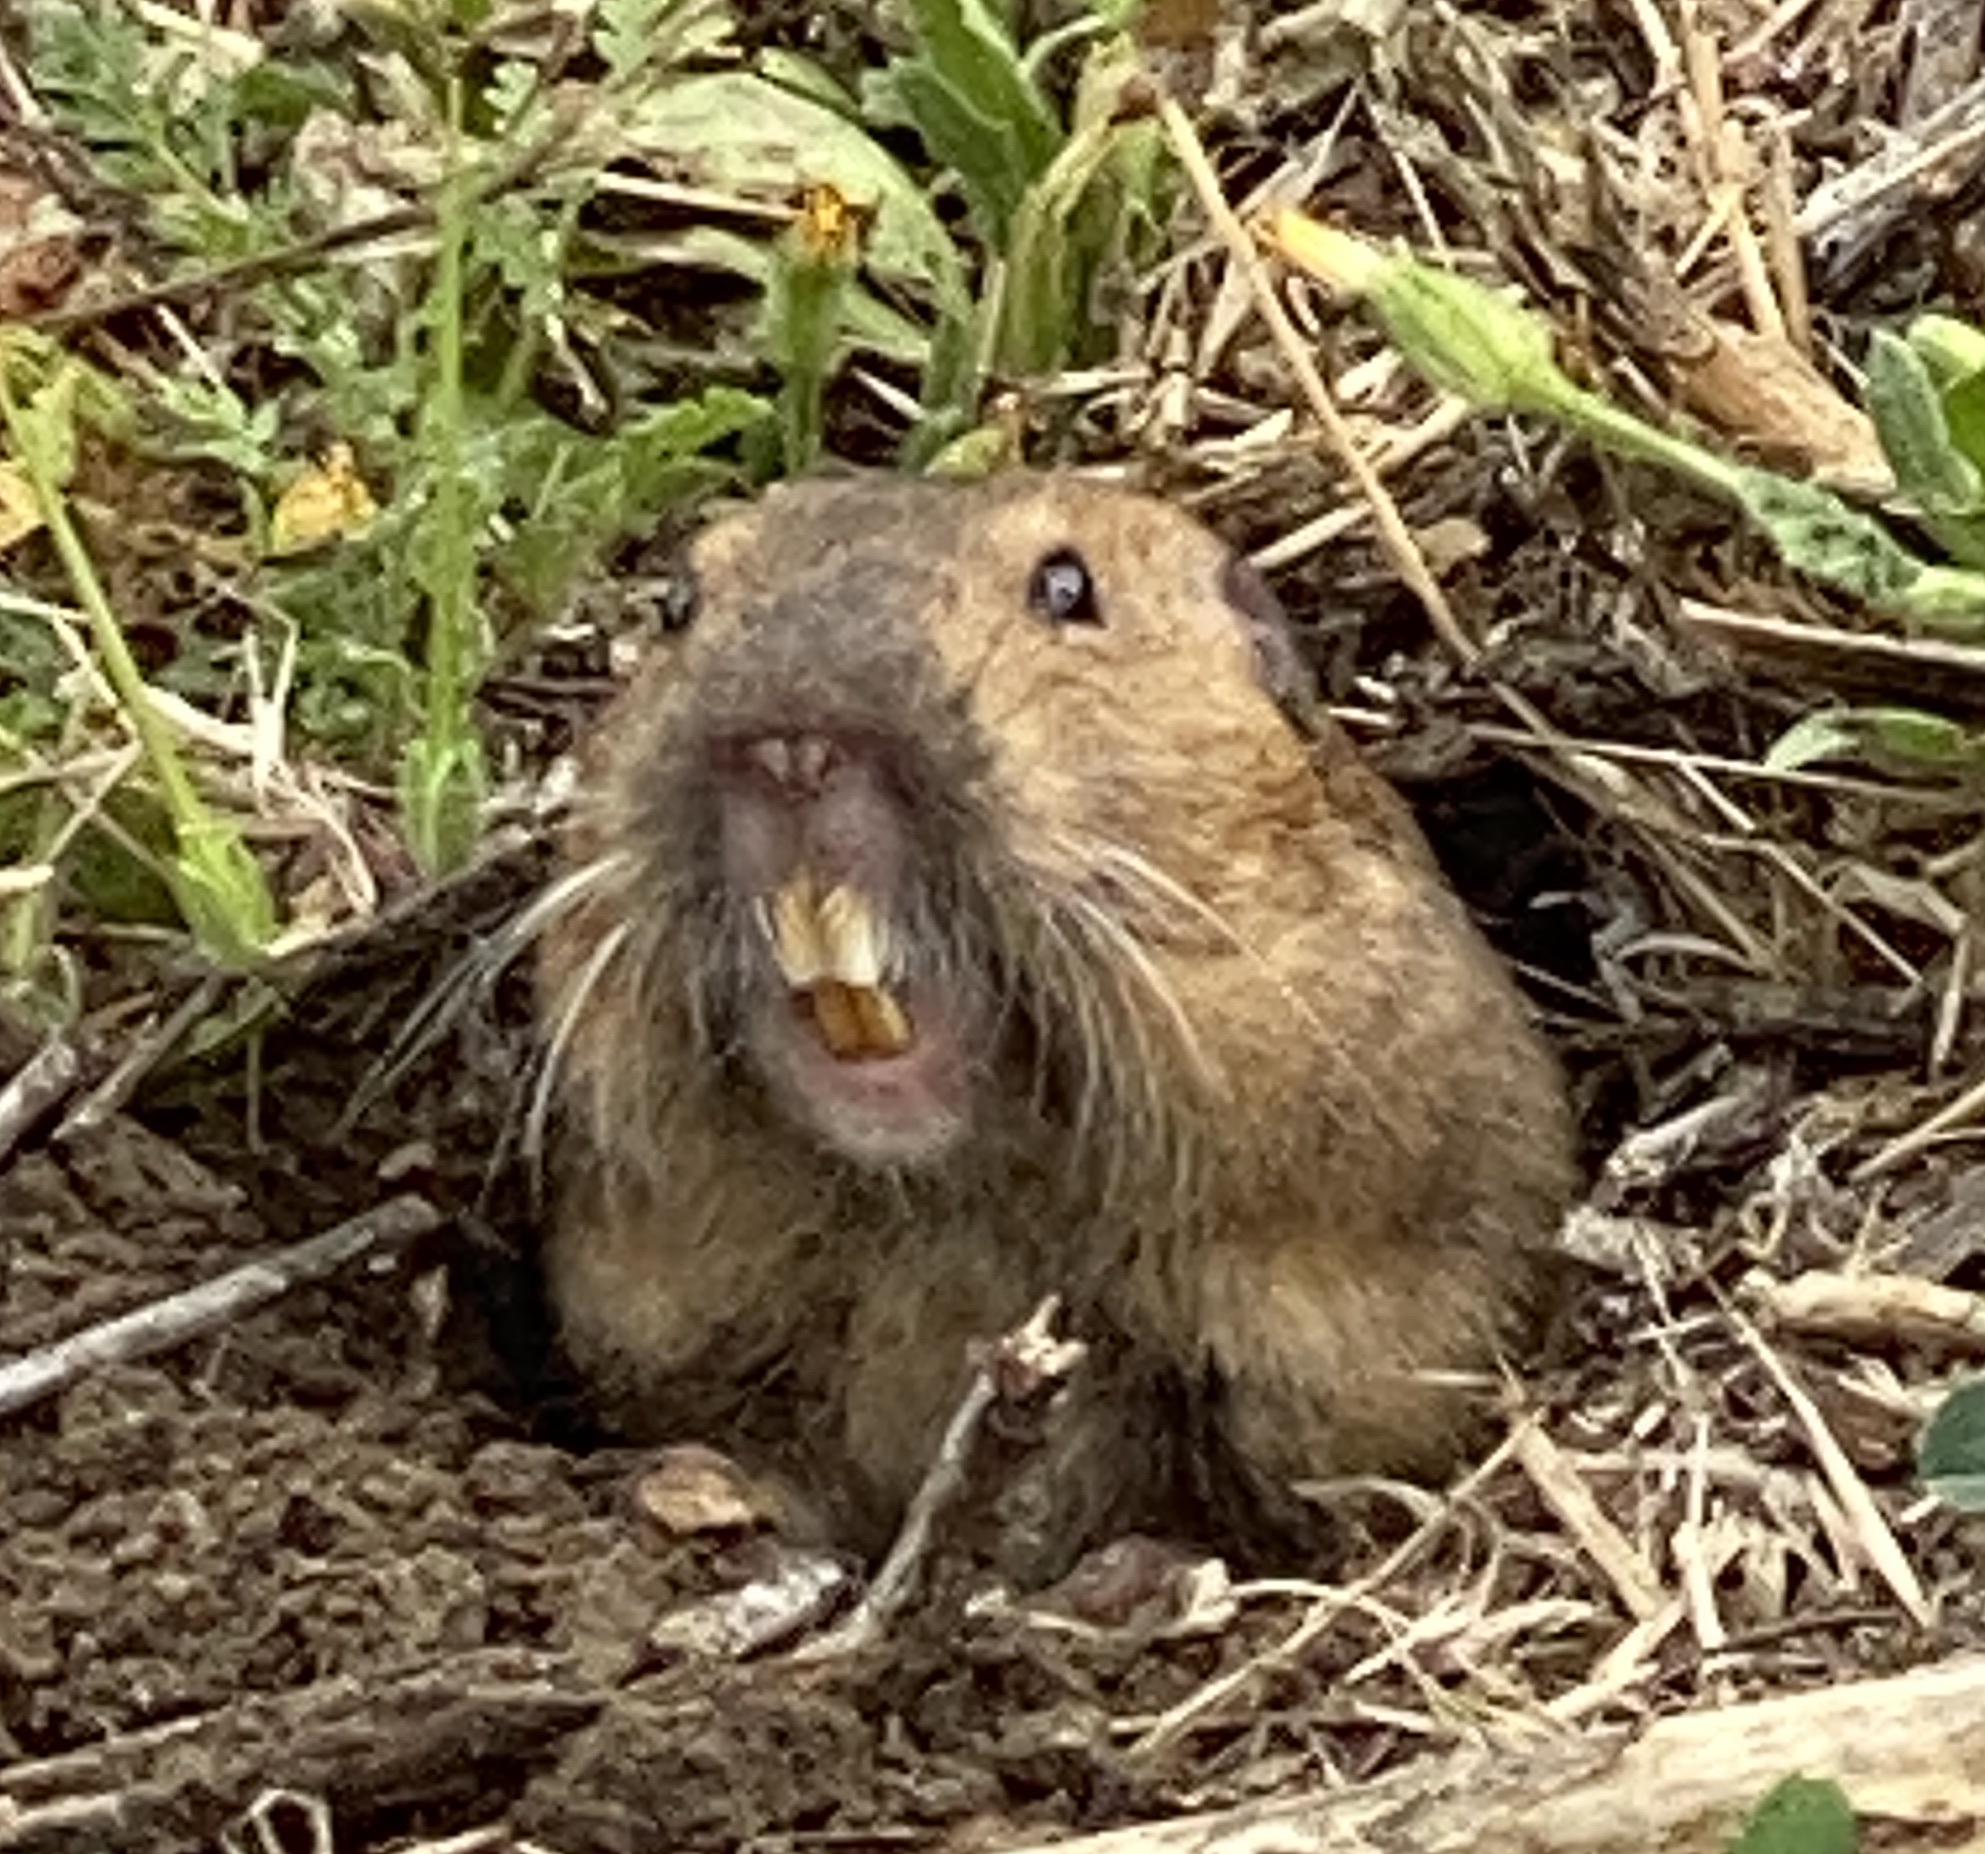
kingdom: Animalia
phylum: Chordata
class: Mammalia
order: Rodentia
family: Geomyidae
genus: Thomomys
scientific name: Thomomys bottae
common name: Botta's pocket gopher
